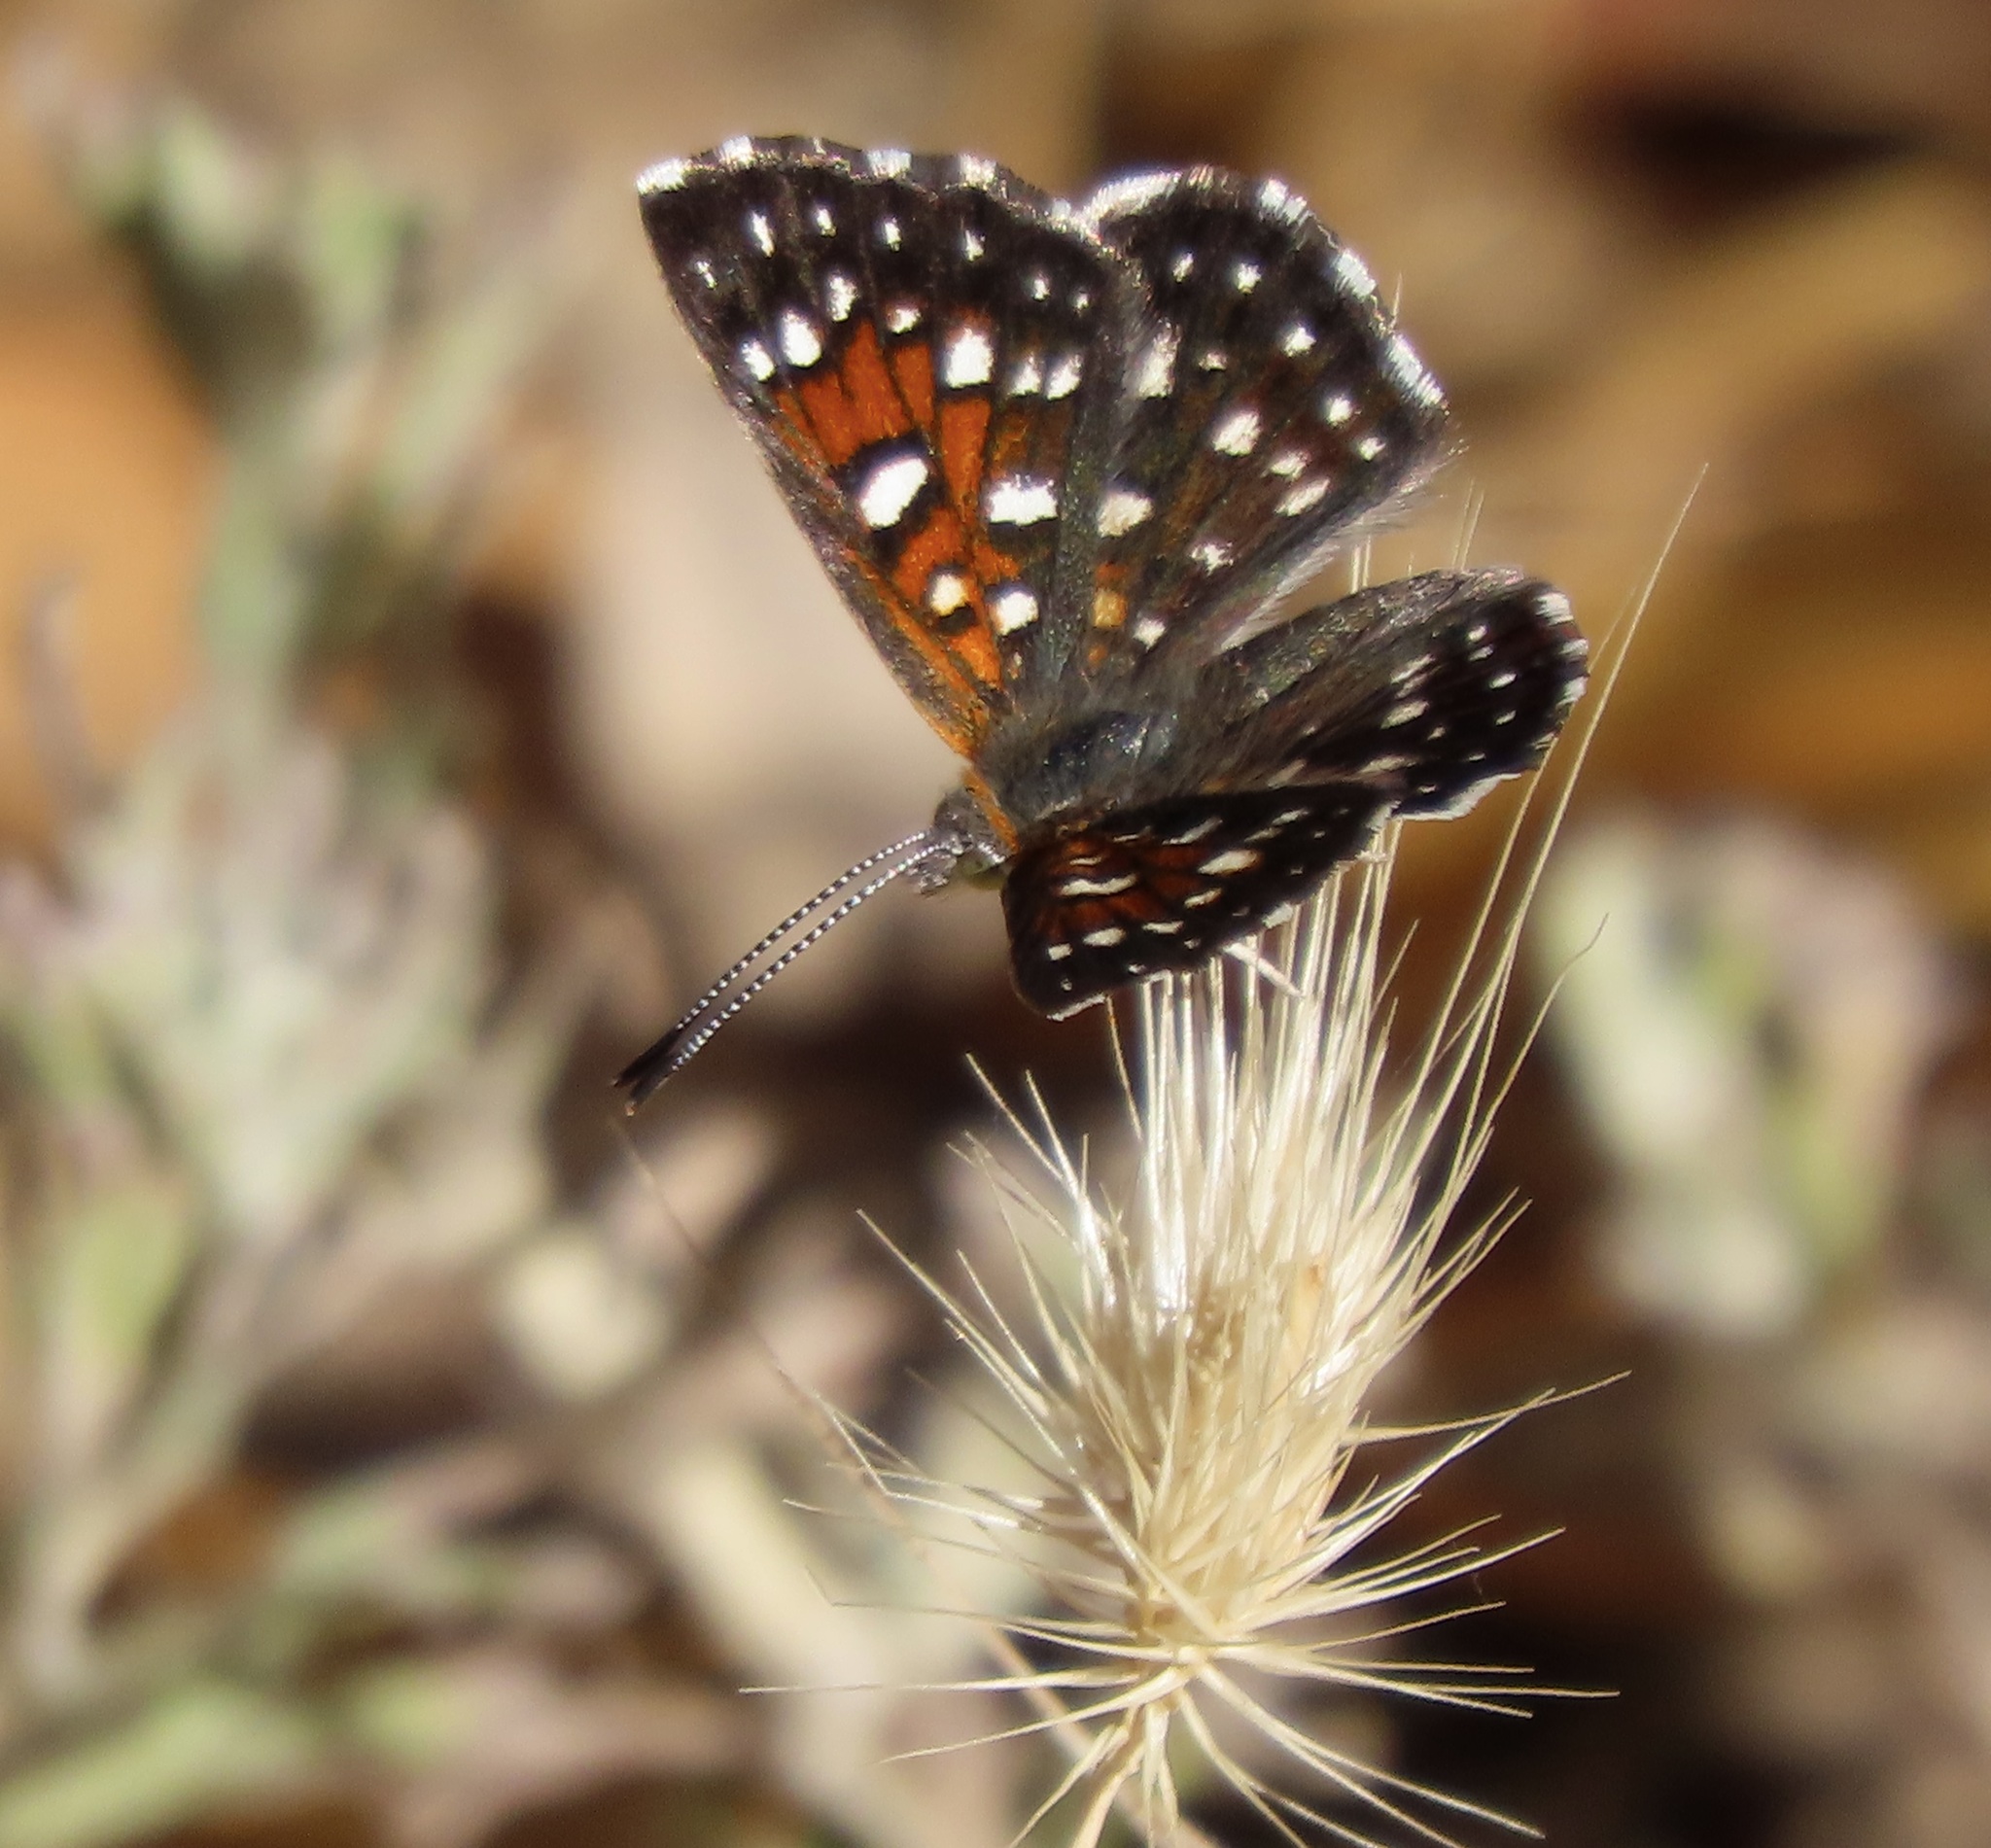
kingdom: Animalia
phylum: Arthropoda
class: Insecta
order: Lepidoptera
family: Riodinidae
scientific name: Riodinidae
